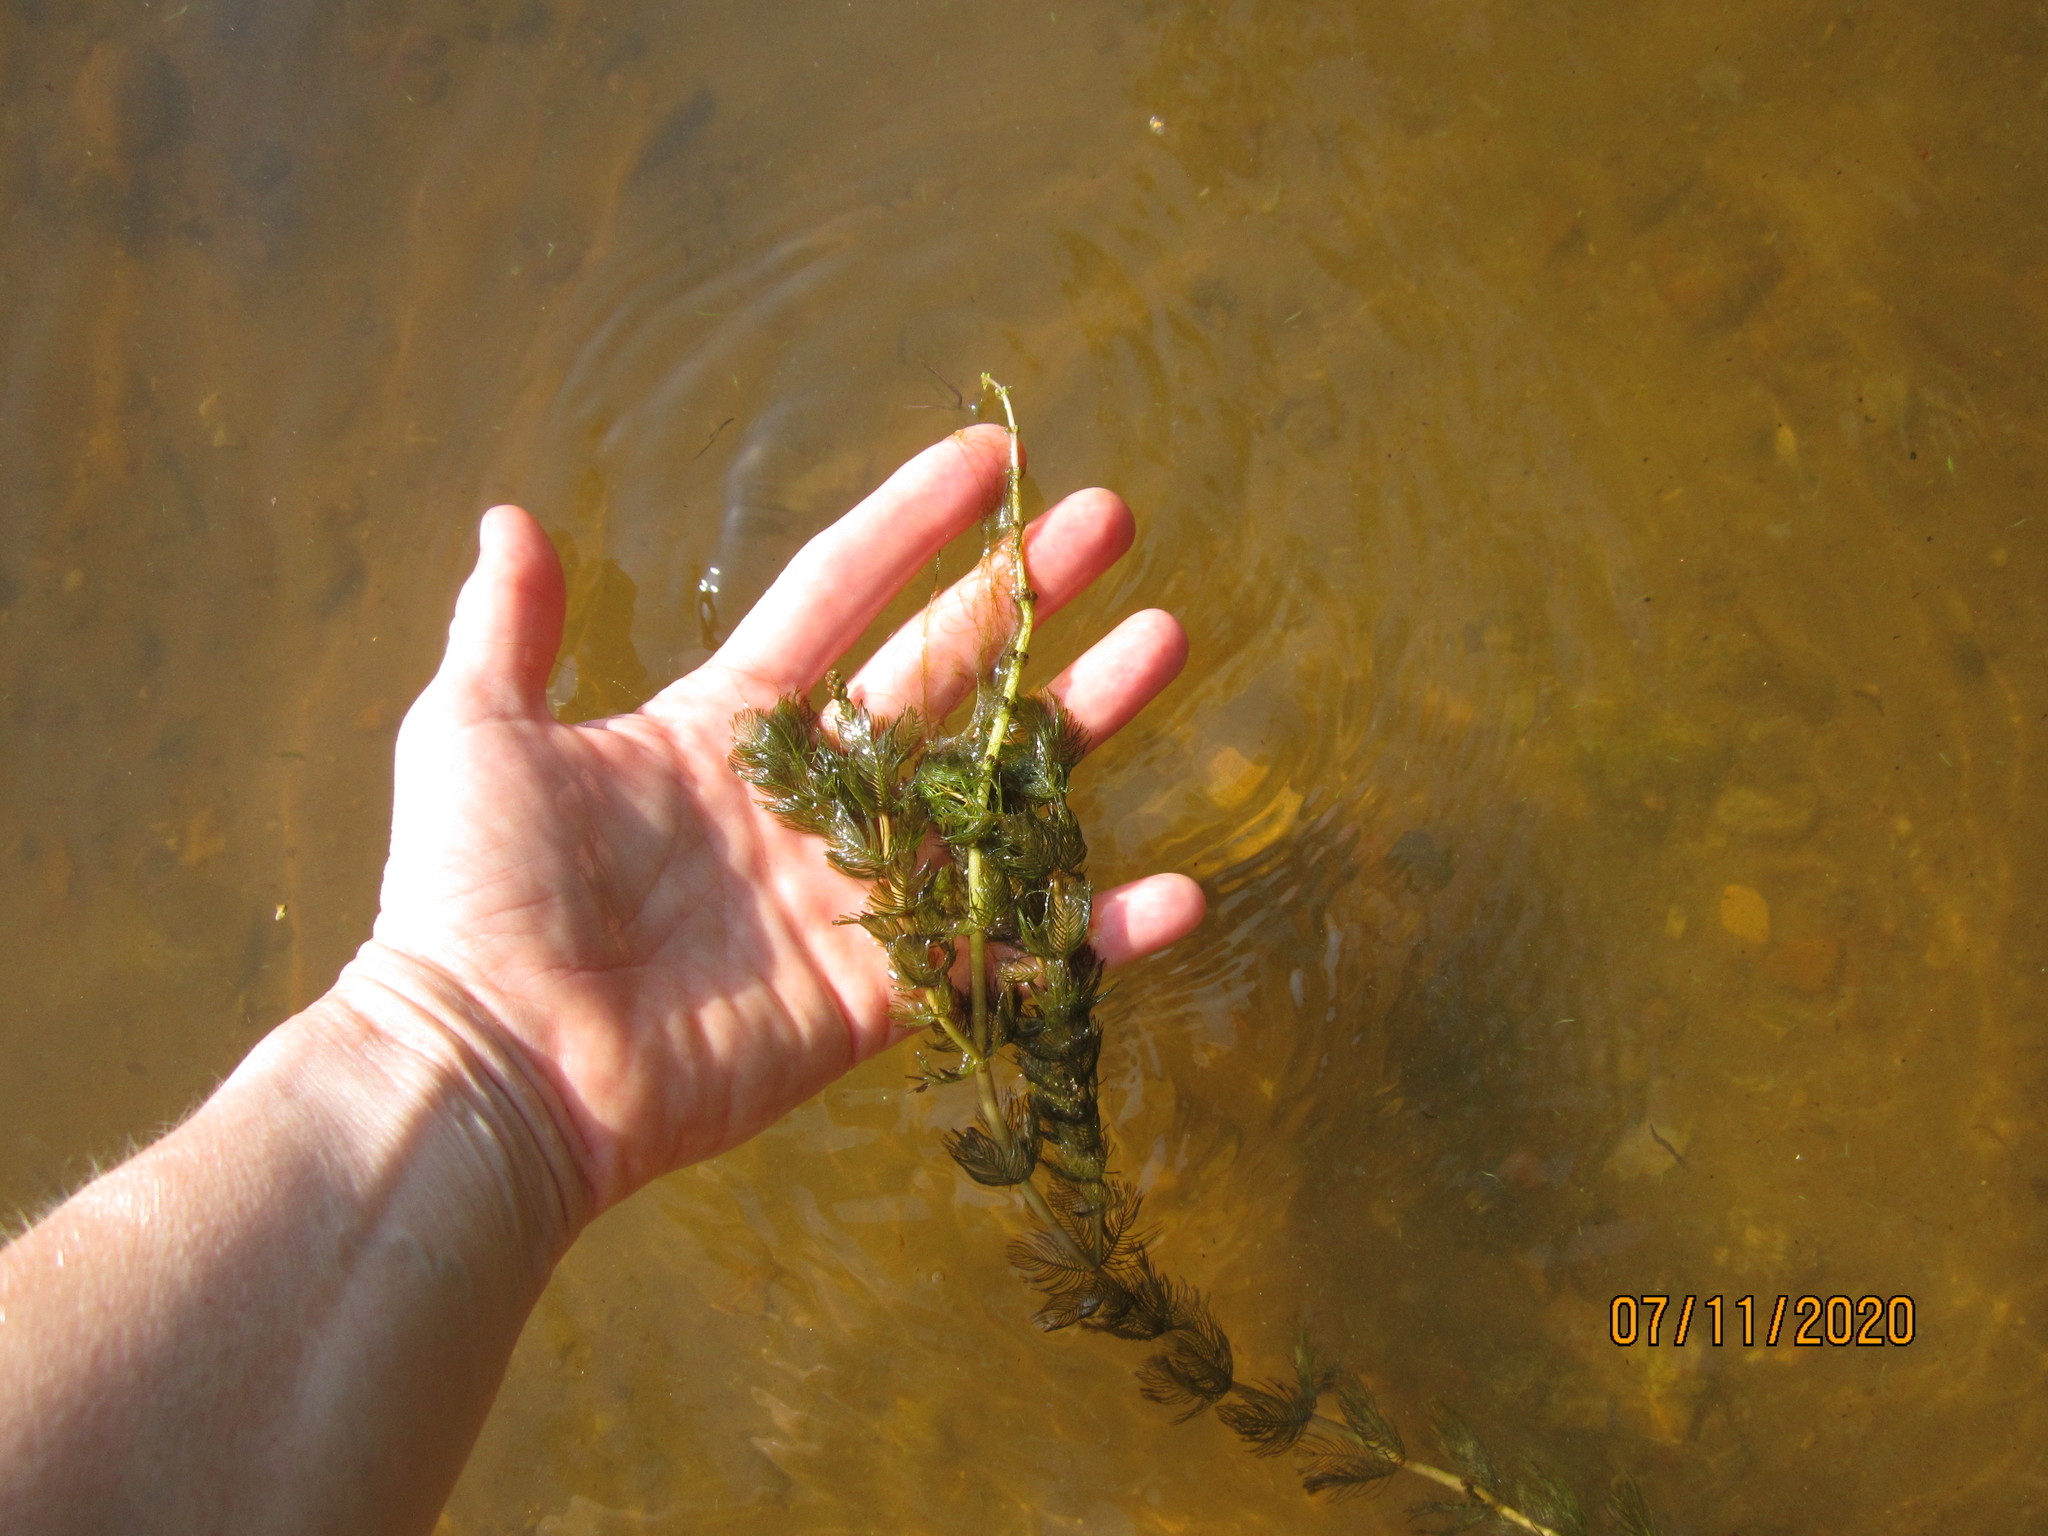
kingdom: Plantae
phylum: Tracheophyta
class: Magnoliopsida
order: Saxifragales
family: Haloragaceae
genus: Myriophyllum
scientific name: Myriophyllum spicatum
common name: Spiked water-milfoil
